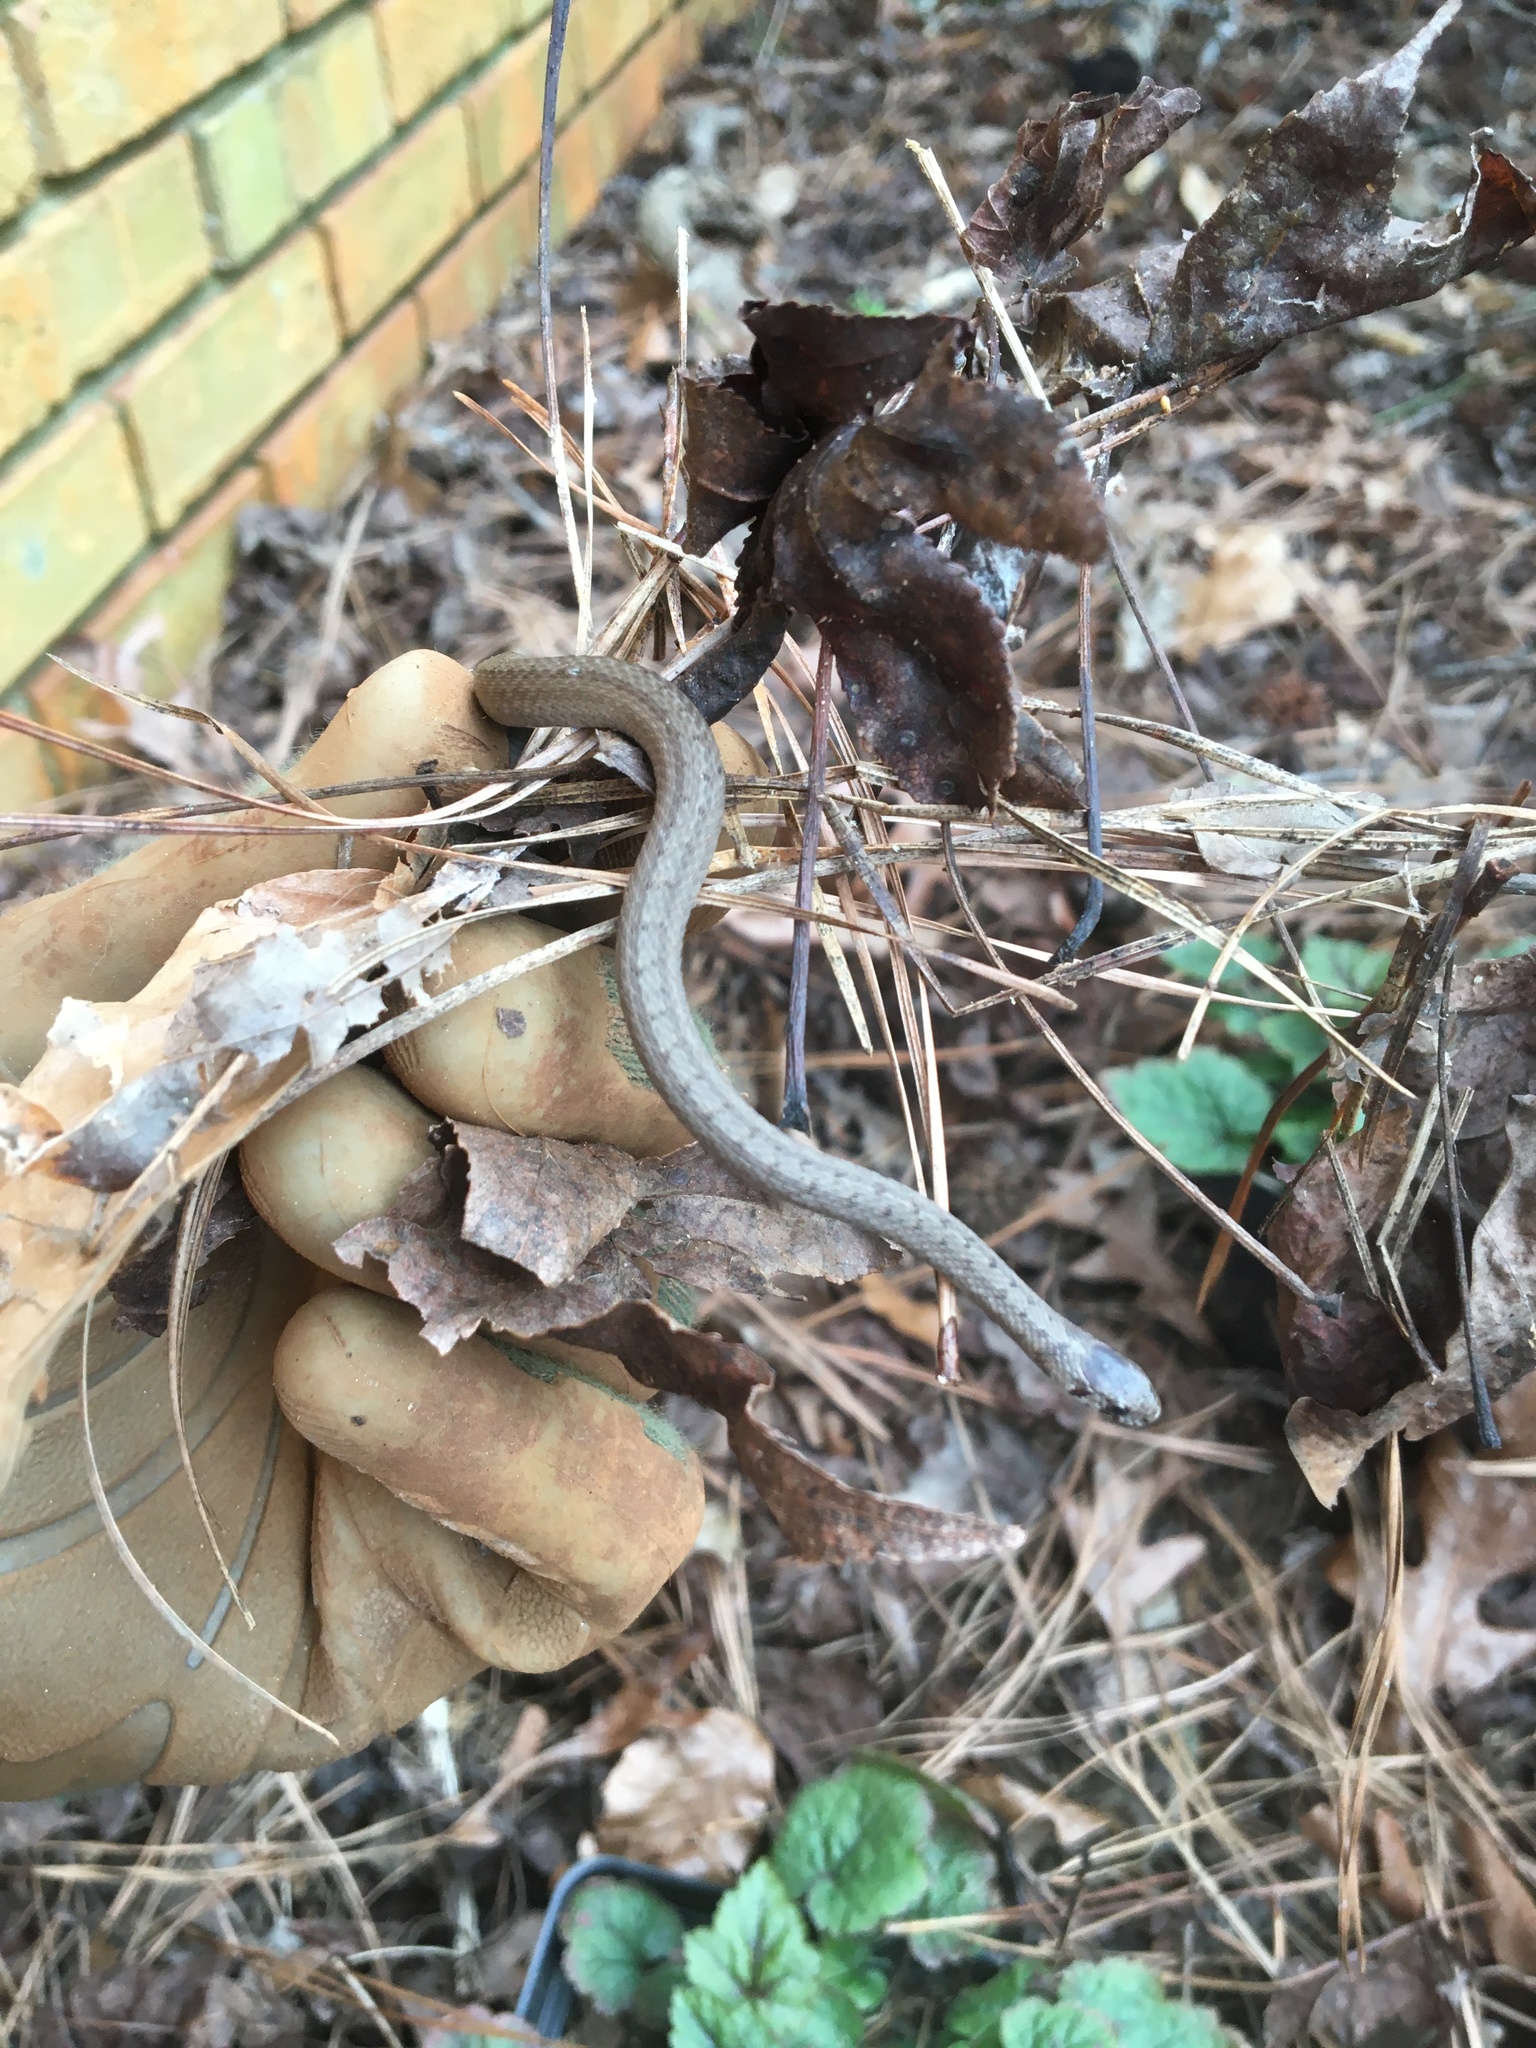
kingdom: Animalia
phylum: Chordata
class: Squamata
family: Colubridae
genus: Storeria
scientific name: Storeria dekayi
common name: (dekay’s) brown snake
